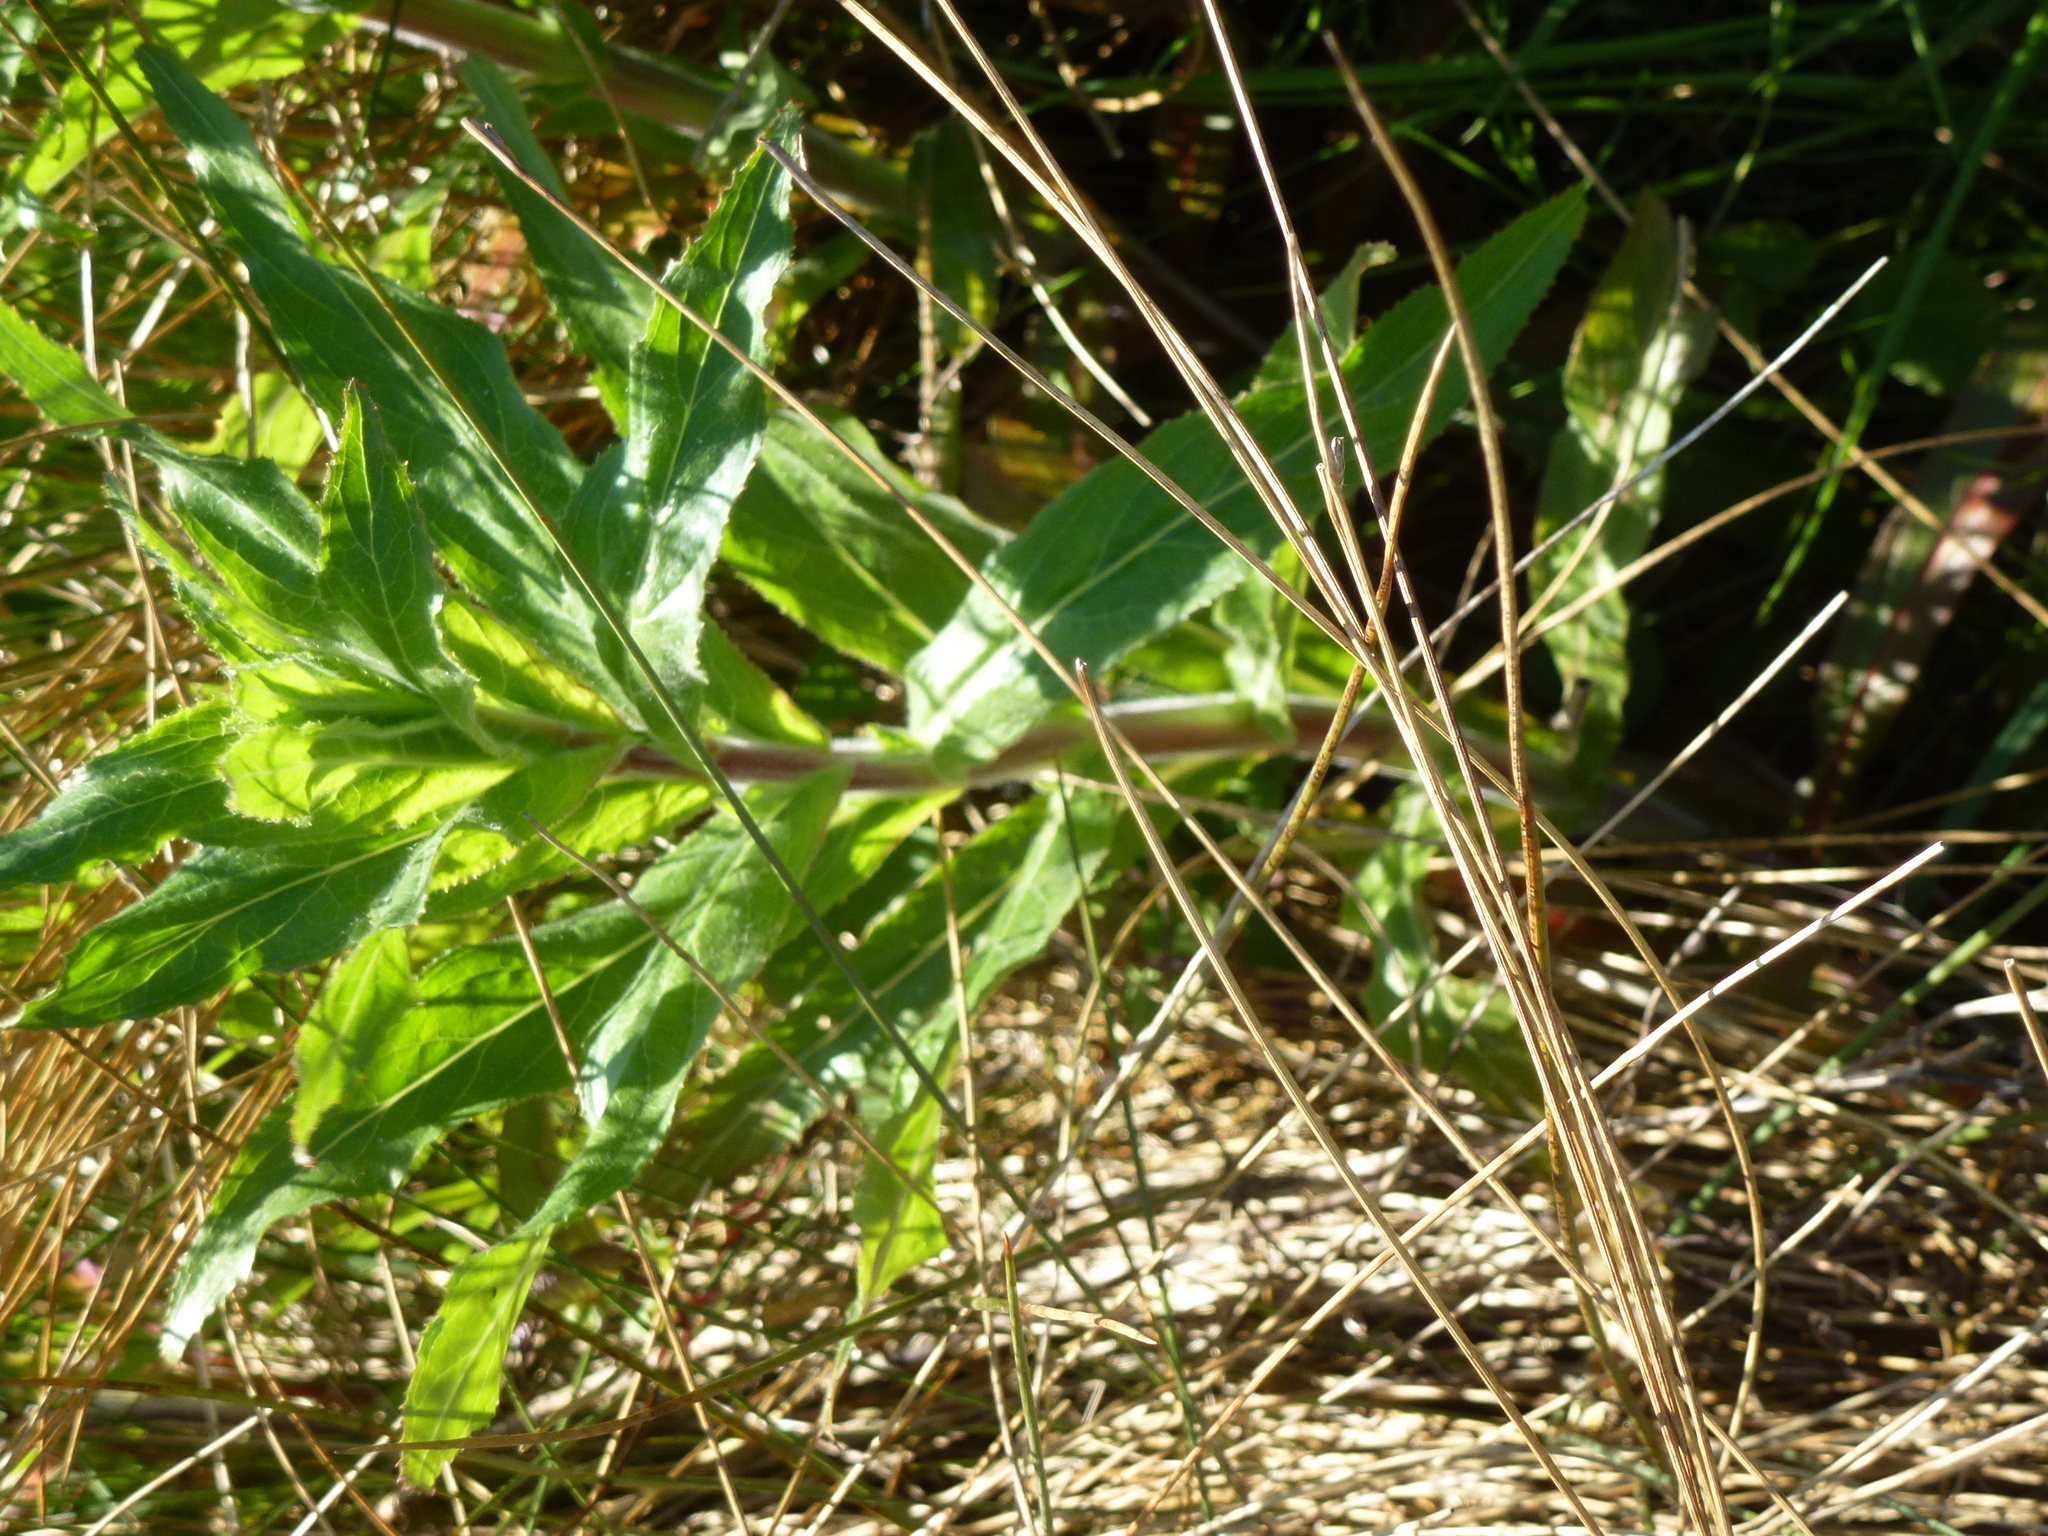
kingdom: Plantae
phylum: Tracheophyta
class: Magnoliopsida
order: Myrtales
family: Onagraceae
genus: Epilobium
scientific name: Epilobium hirsutum
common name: Great willowherb
